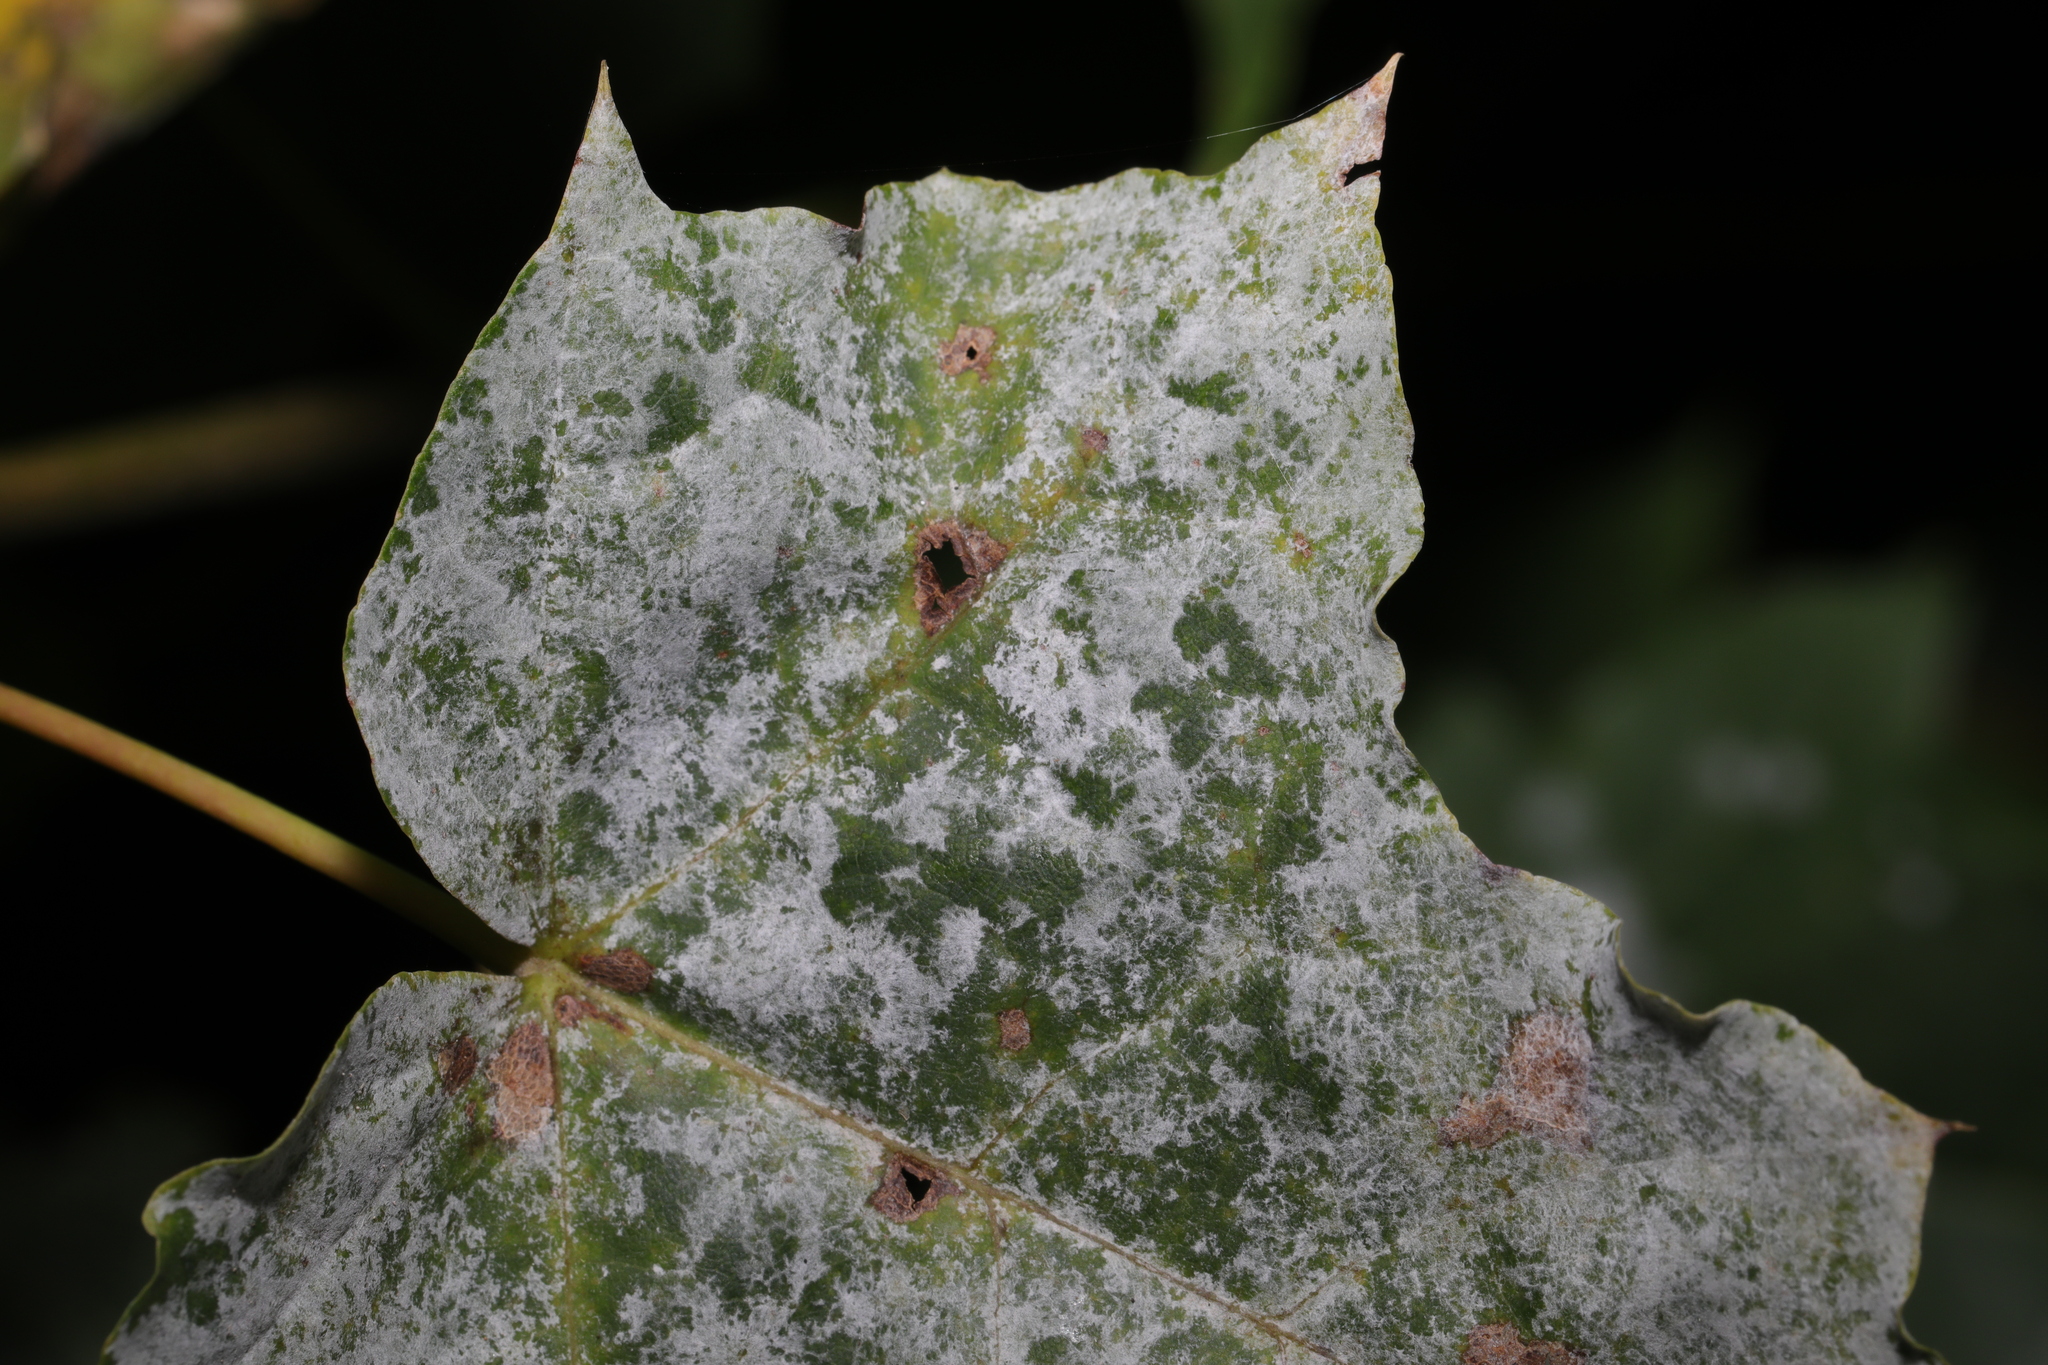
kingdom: Fungi
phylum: Ascomycota
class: Leotiomycetes
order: Helotiales
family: Erysiphaceae
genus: Sawadaea
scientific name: Sawadaea bicornis
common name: Maple mildew
